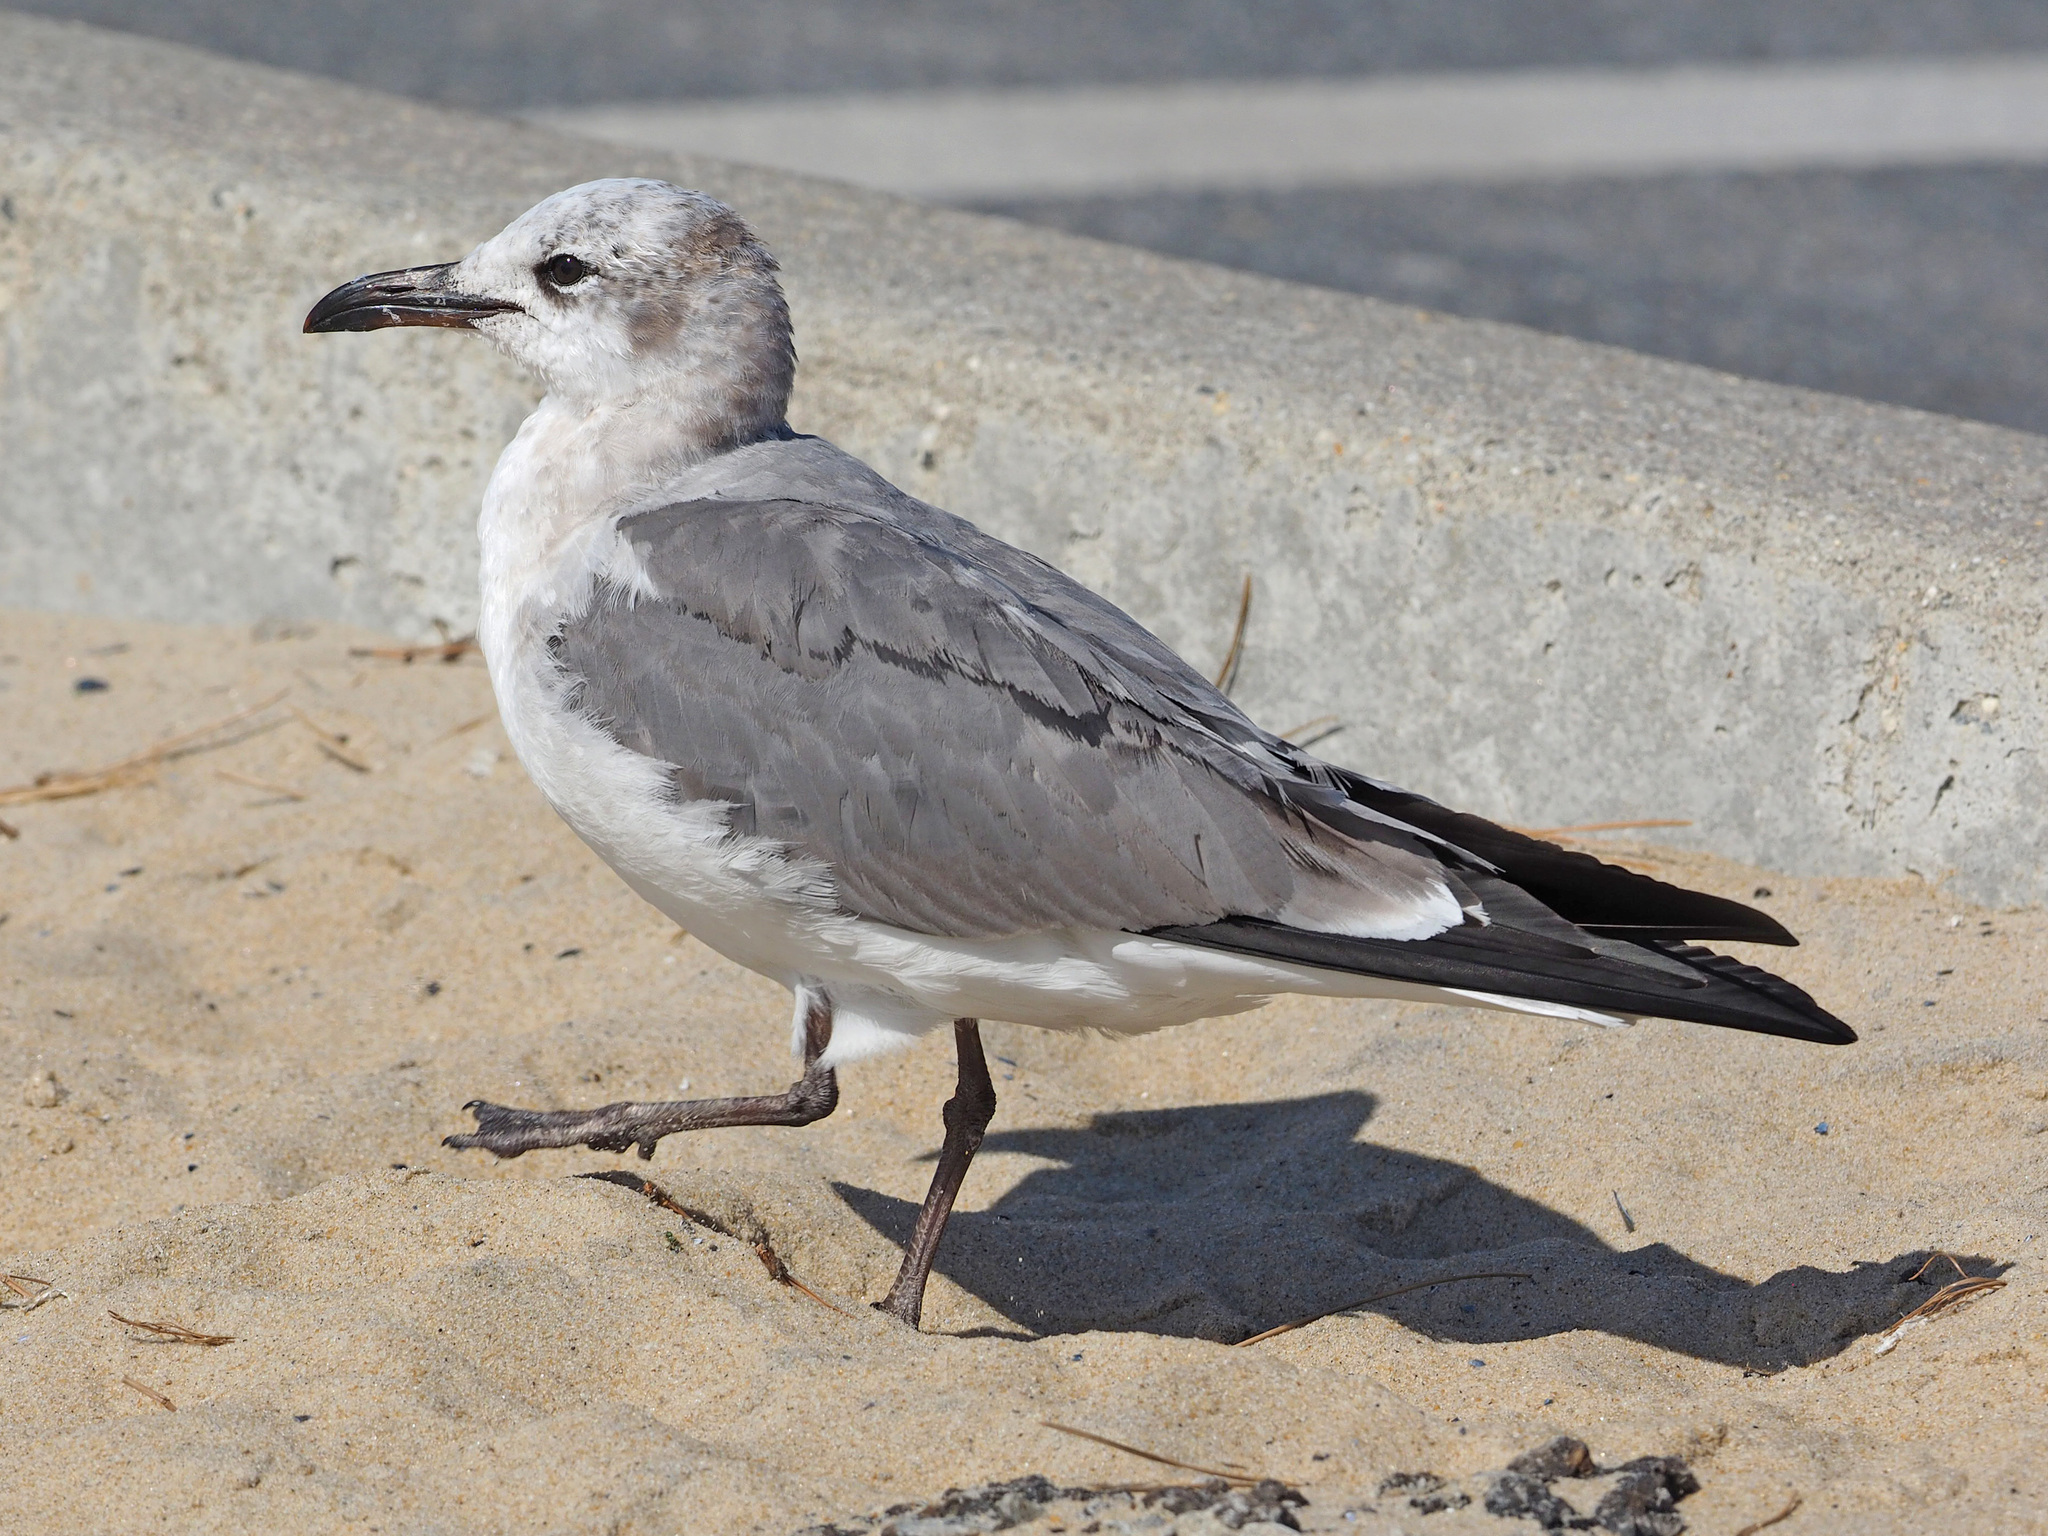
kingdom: Animalia
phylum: Chordata
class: Aves
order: Charadriiformes
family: Laridae
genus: Leucophaeus
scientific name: Leucophaeus atricilla
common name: Laughing gull
